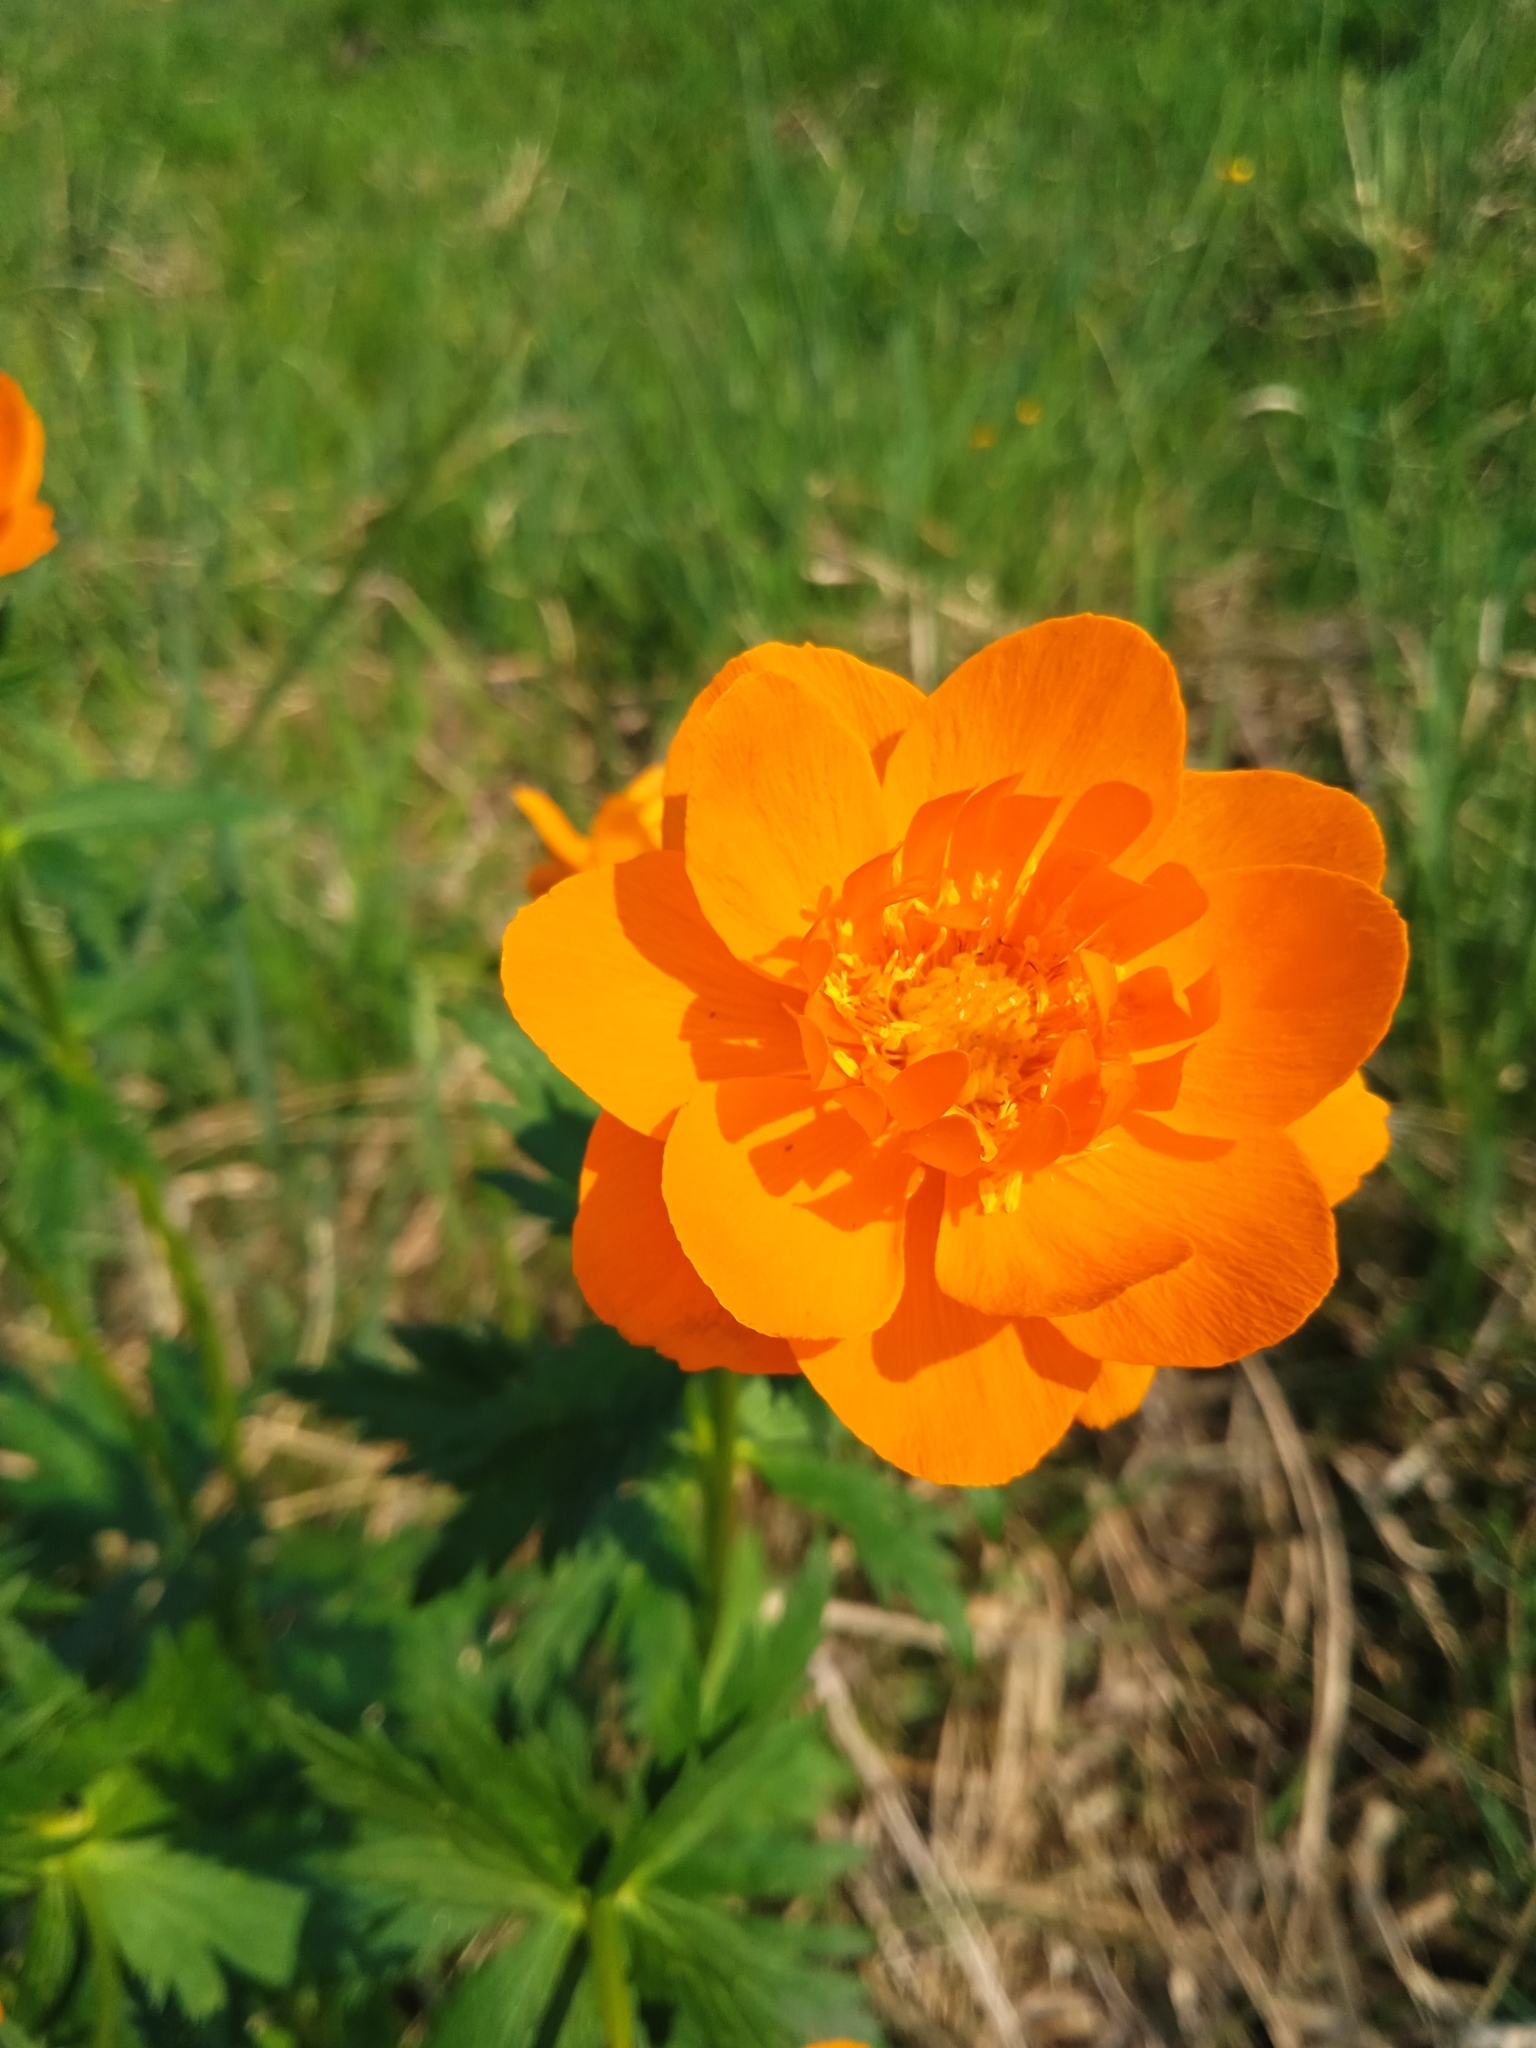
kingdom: Plantae
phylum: Tracheophyta
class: Magnoliopsida
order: Ranunculales
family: Ranunculaceae
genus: Trollius
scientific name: Trollius asiaticus
